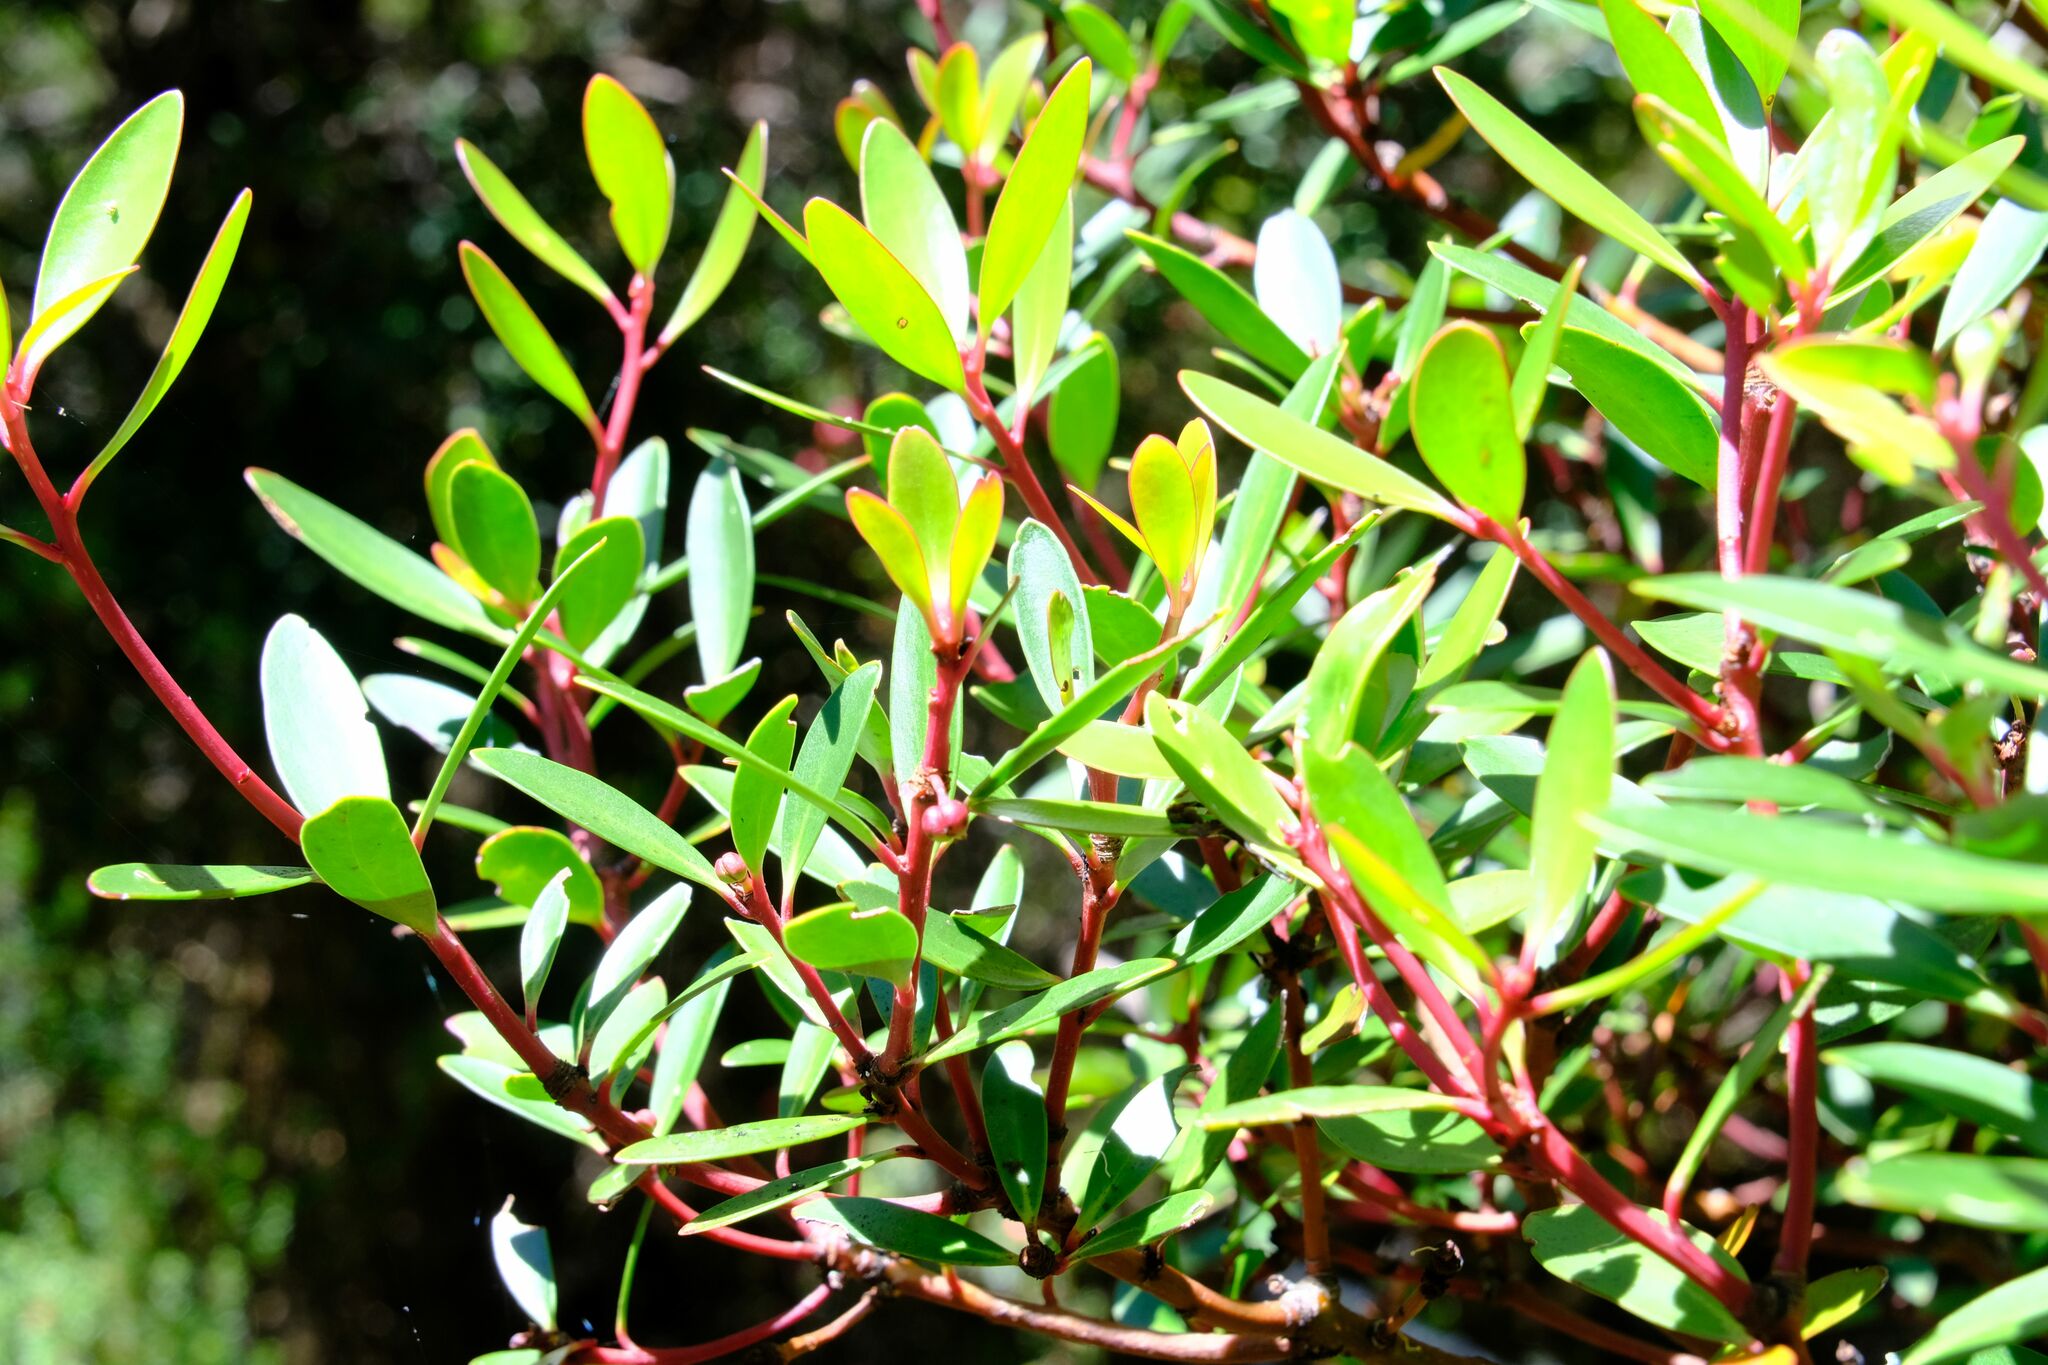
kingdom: Plantae
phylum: Tracheophyta
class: Magnoliopsida
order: Canellales
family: Winteraceae
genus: Drimys
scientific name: Drimys aromatica
